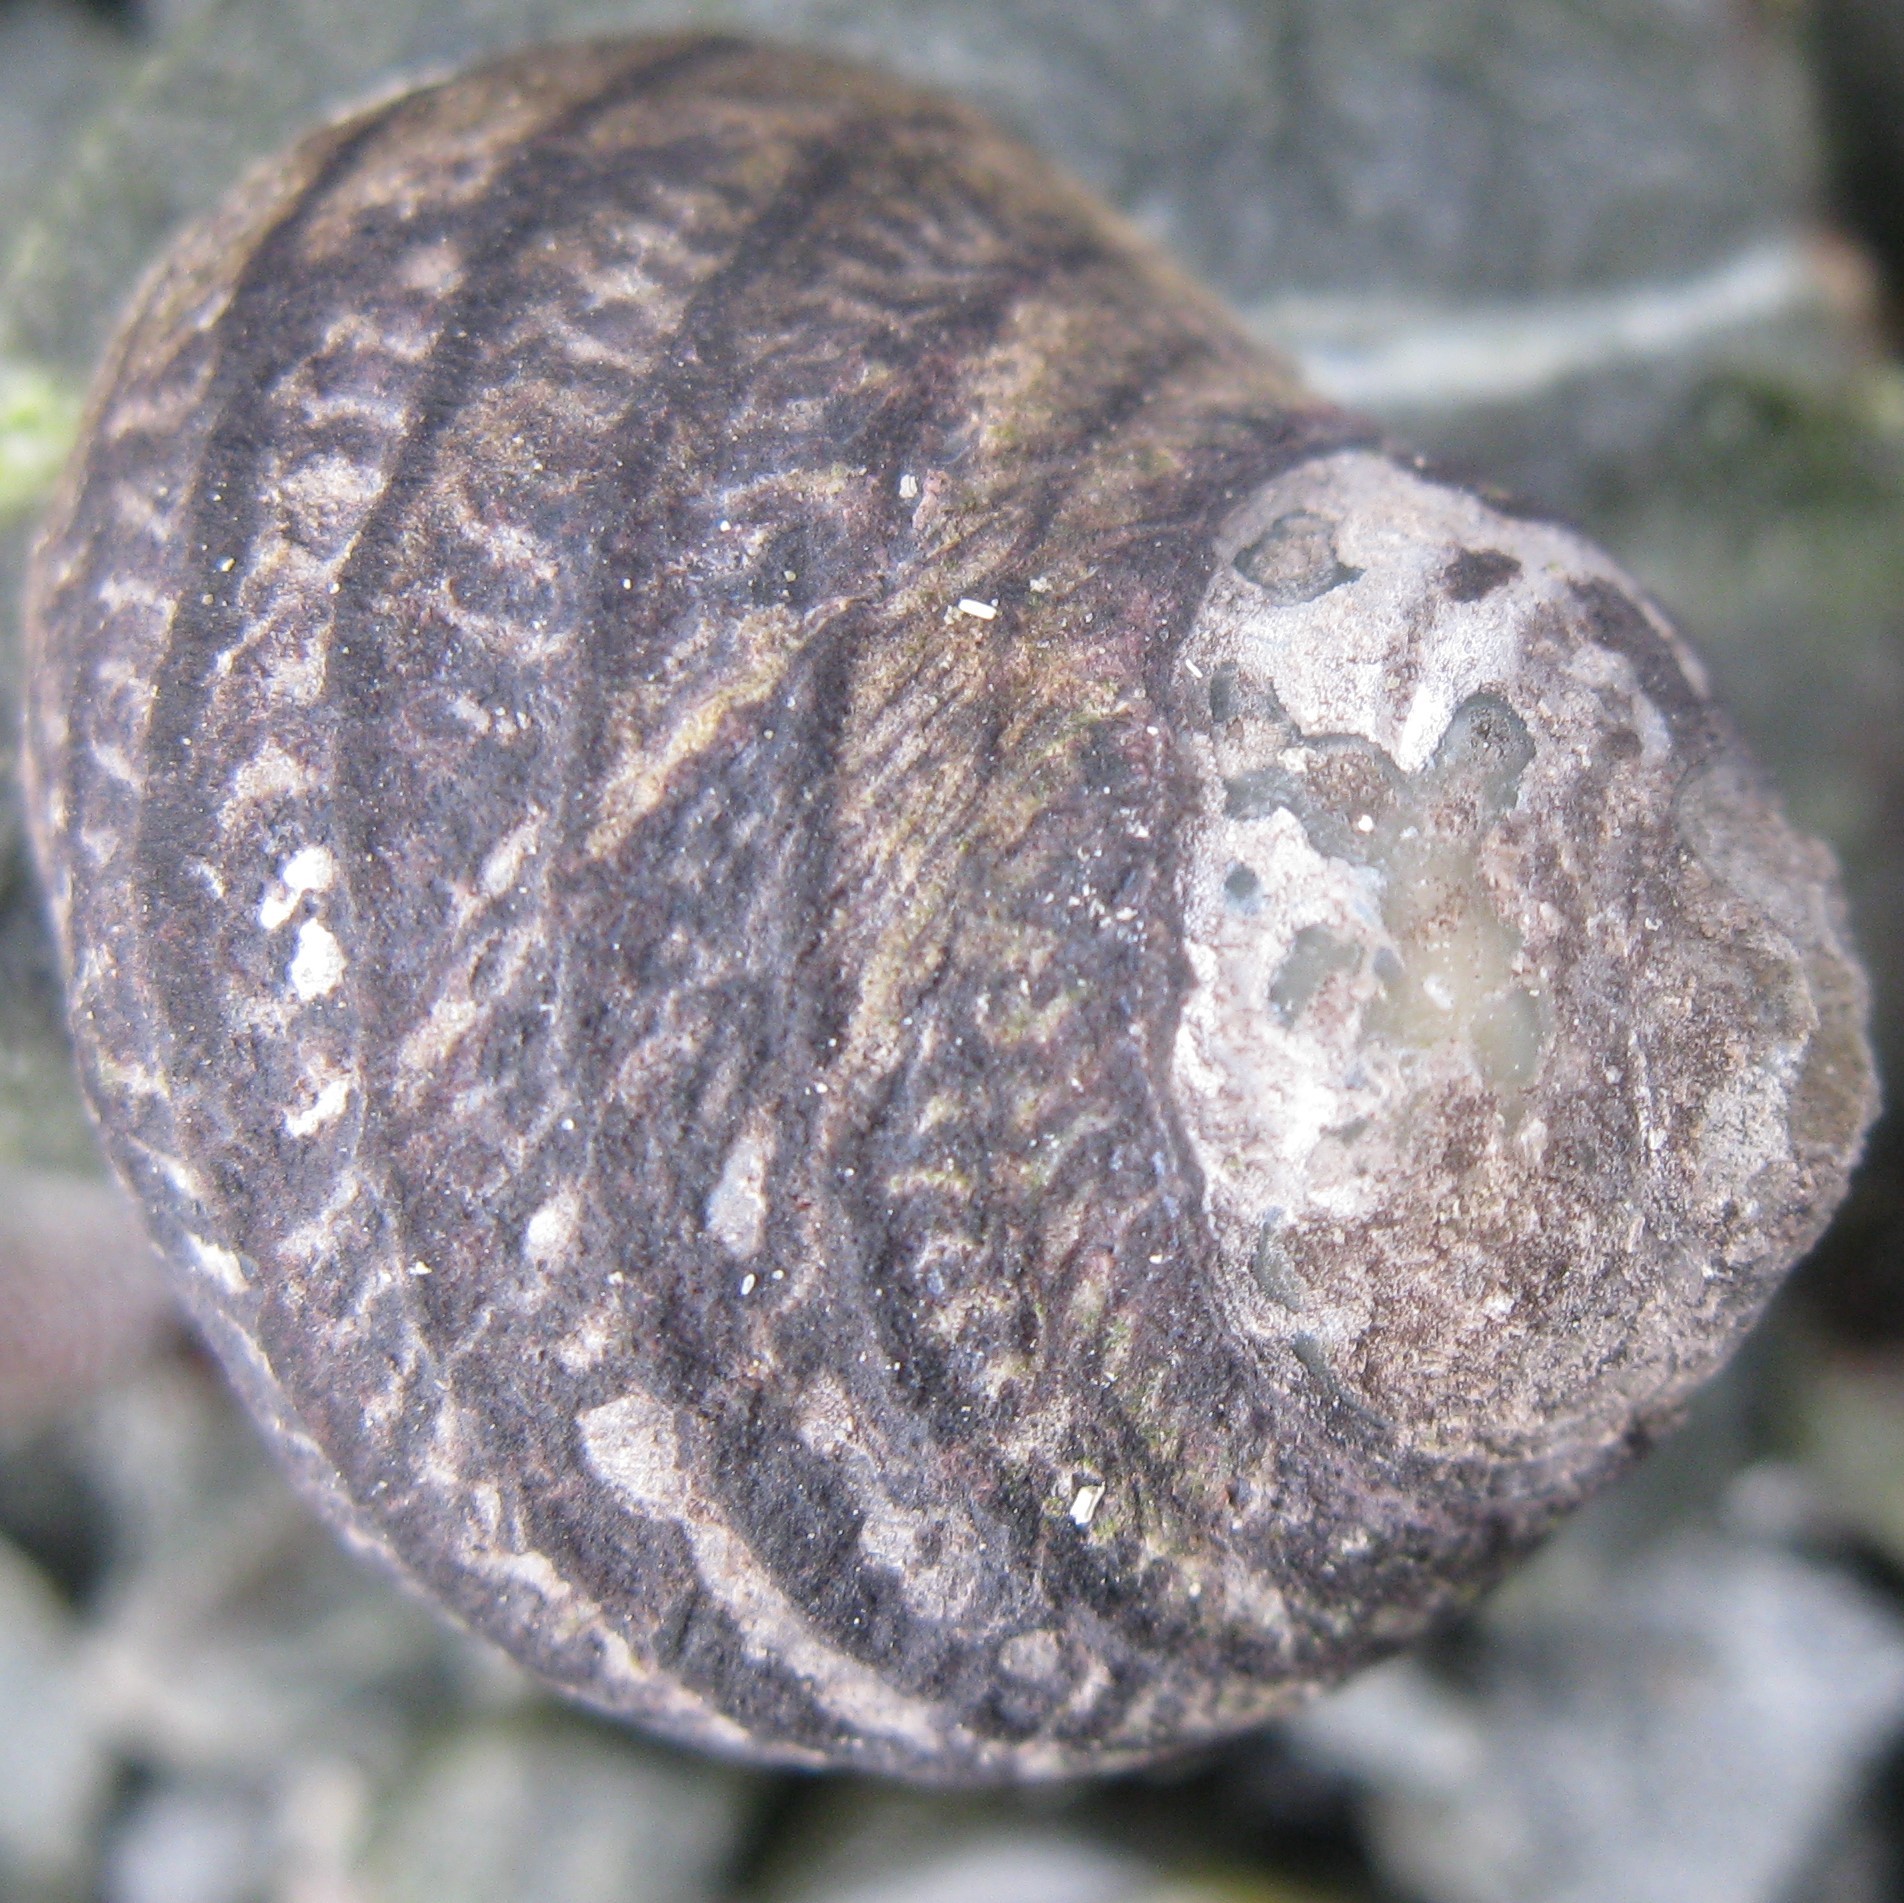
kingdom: Animalia
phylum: Mollusca
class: Gastropoda
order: Trochida
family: Trochidae
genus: Diloma
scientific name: Diloma aethiops
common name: Scorched monodont
